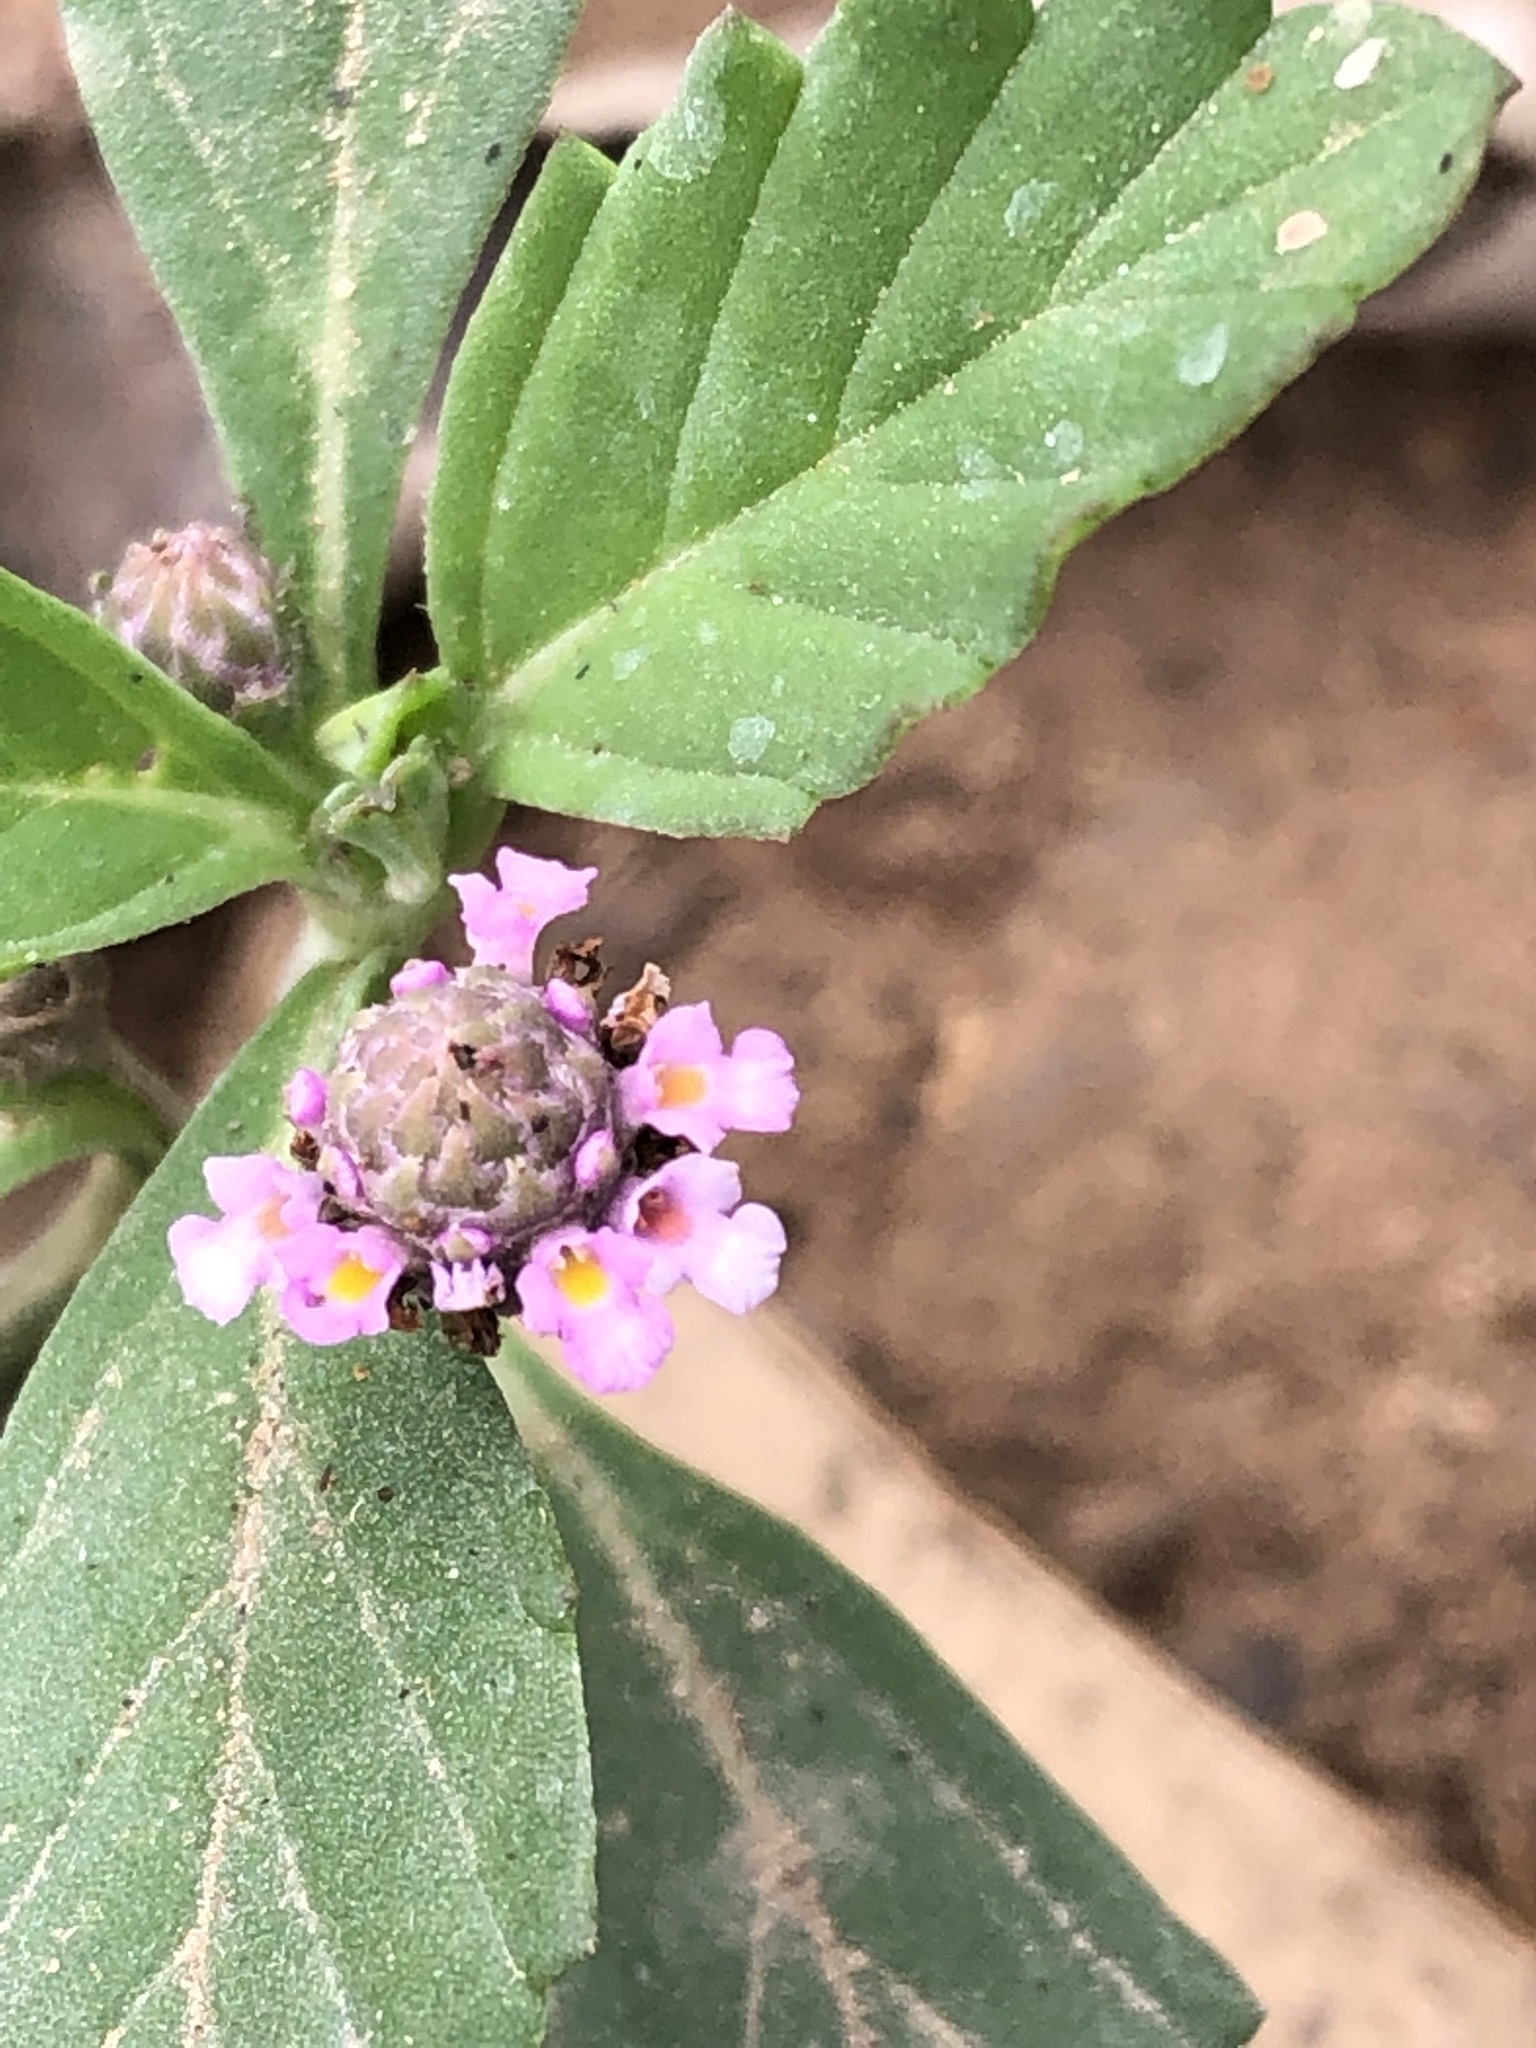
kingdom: Plantae
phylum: Tracheophyta
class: Magnoliopsida
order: Lamiales
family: Verbenaceae
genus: Phyla
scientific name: Phyla nodiflora
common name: Frogfruit
